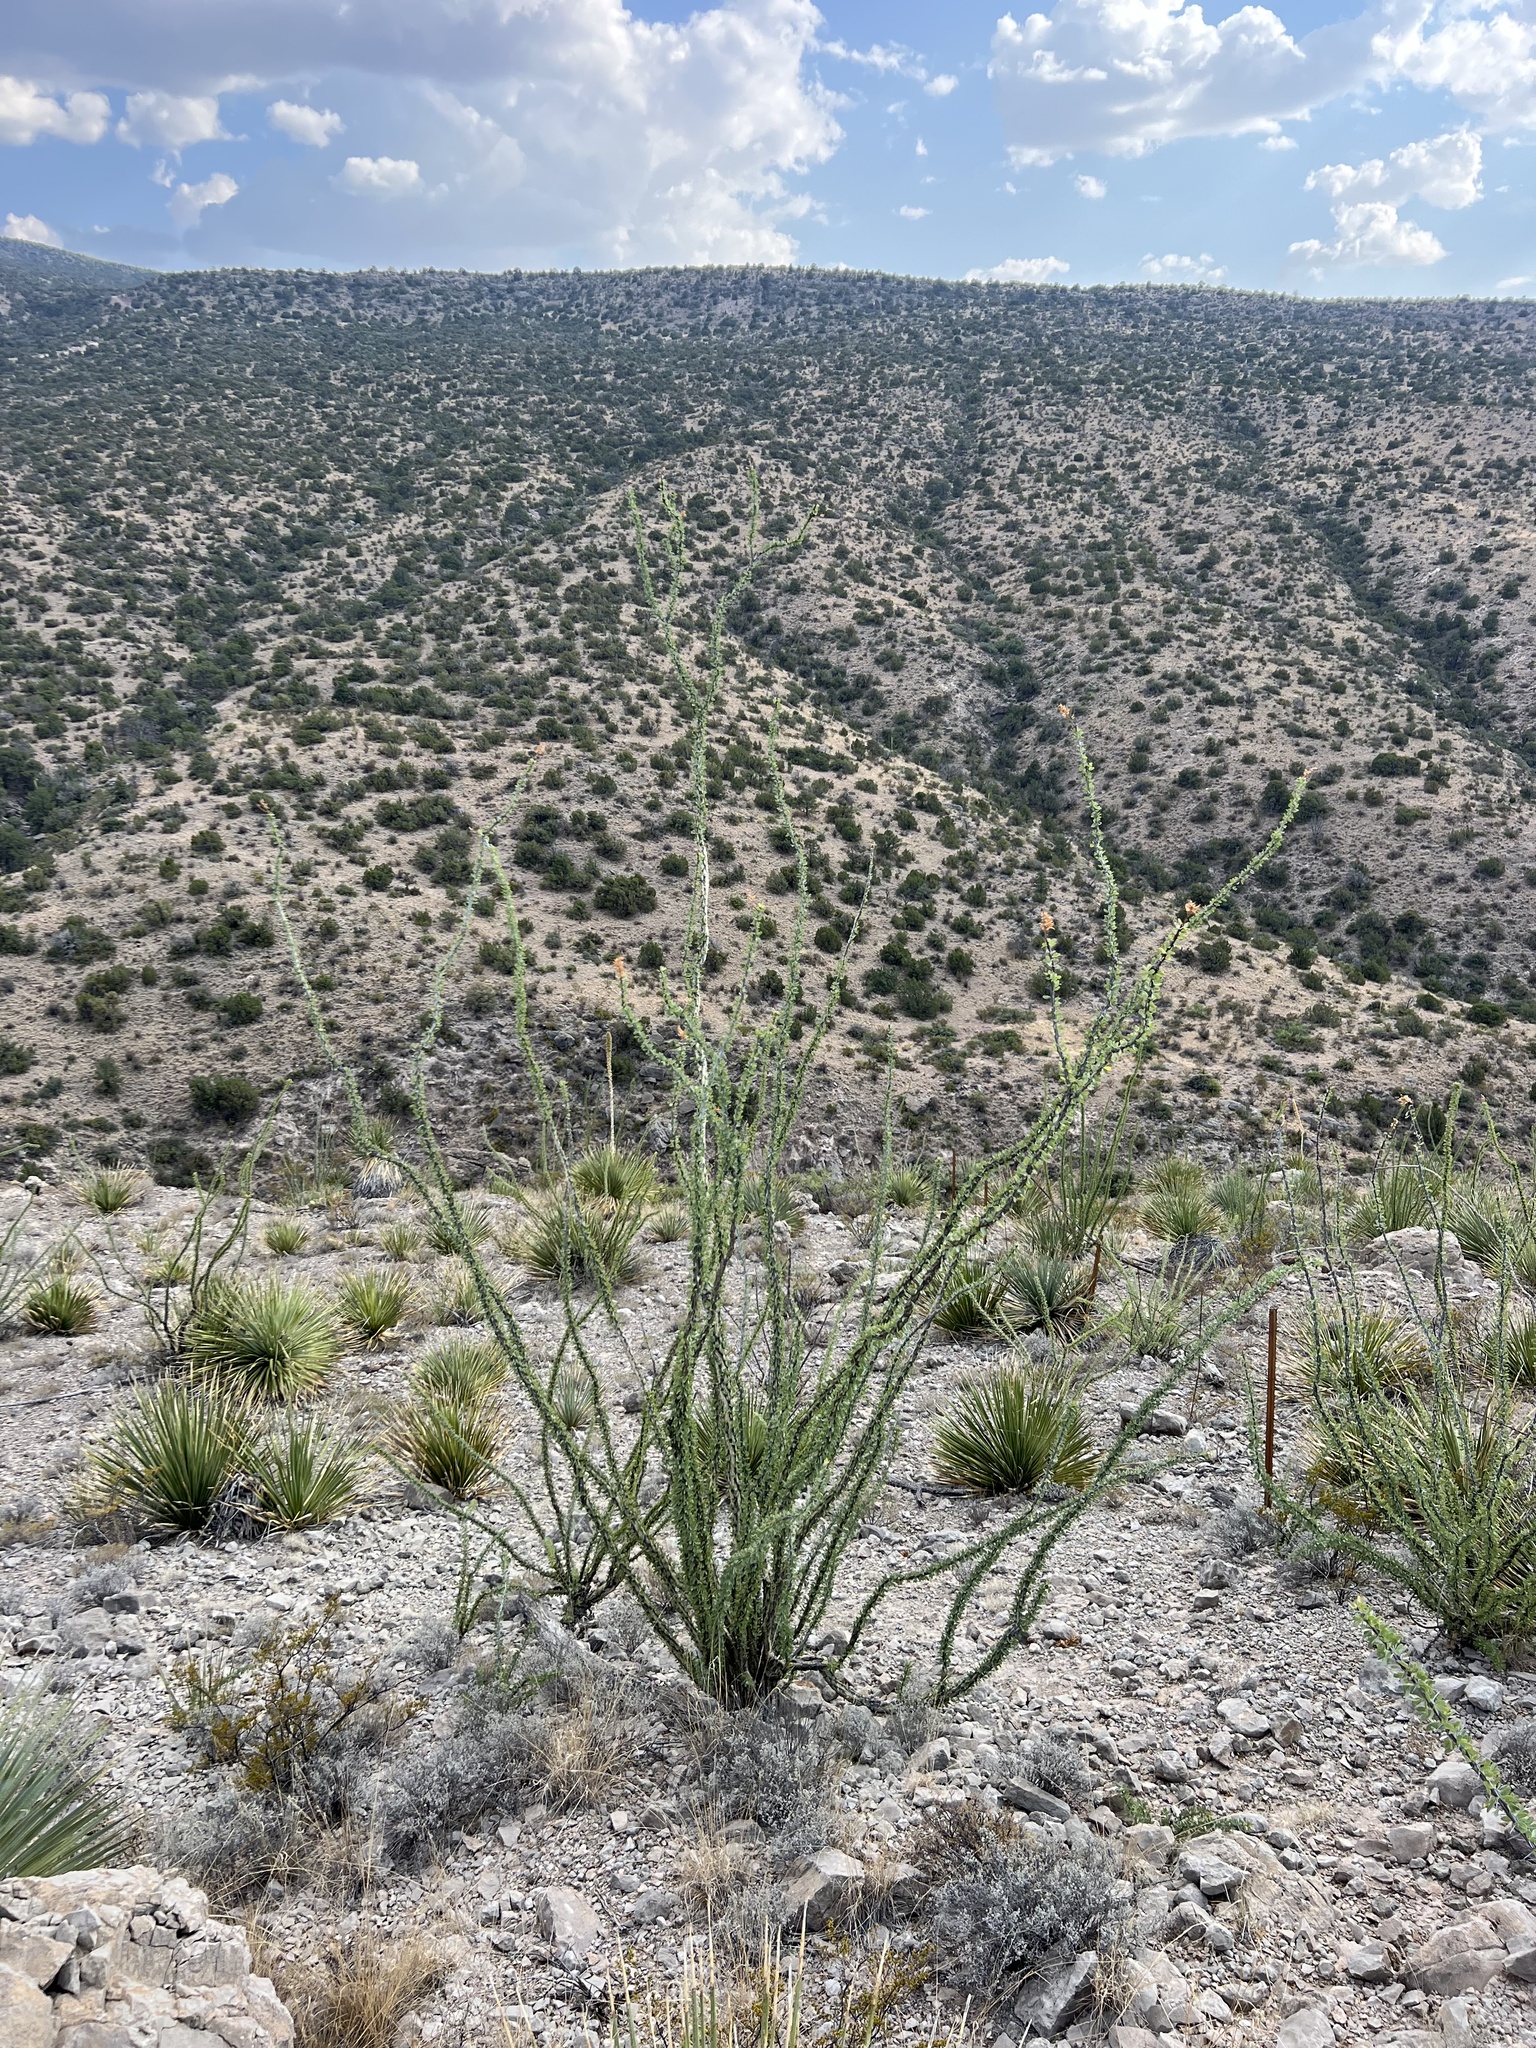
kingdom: Plantae
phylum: Tracheophyta
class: Magnoliopsida
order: Ericales
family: Fouquieriaceae
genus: Fouquieria
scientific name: Fouquieria splendens
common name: Vine-cactus
